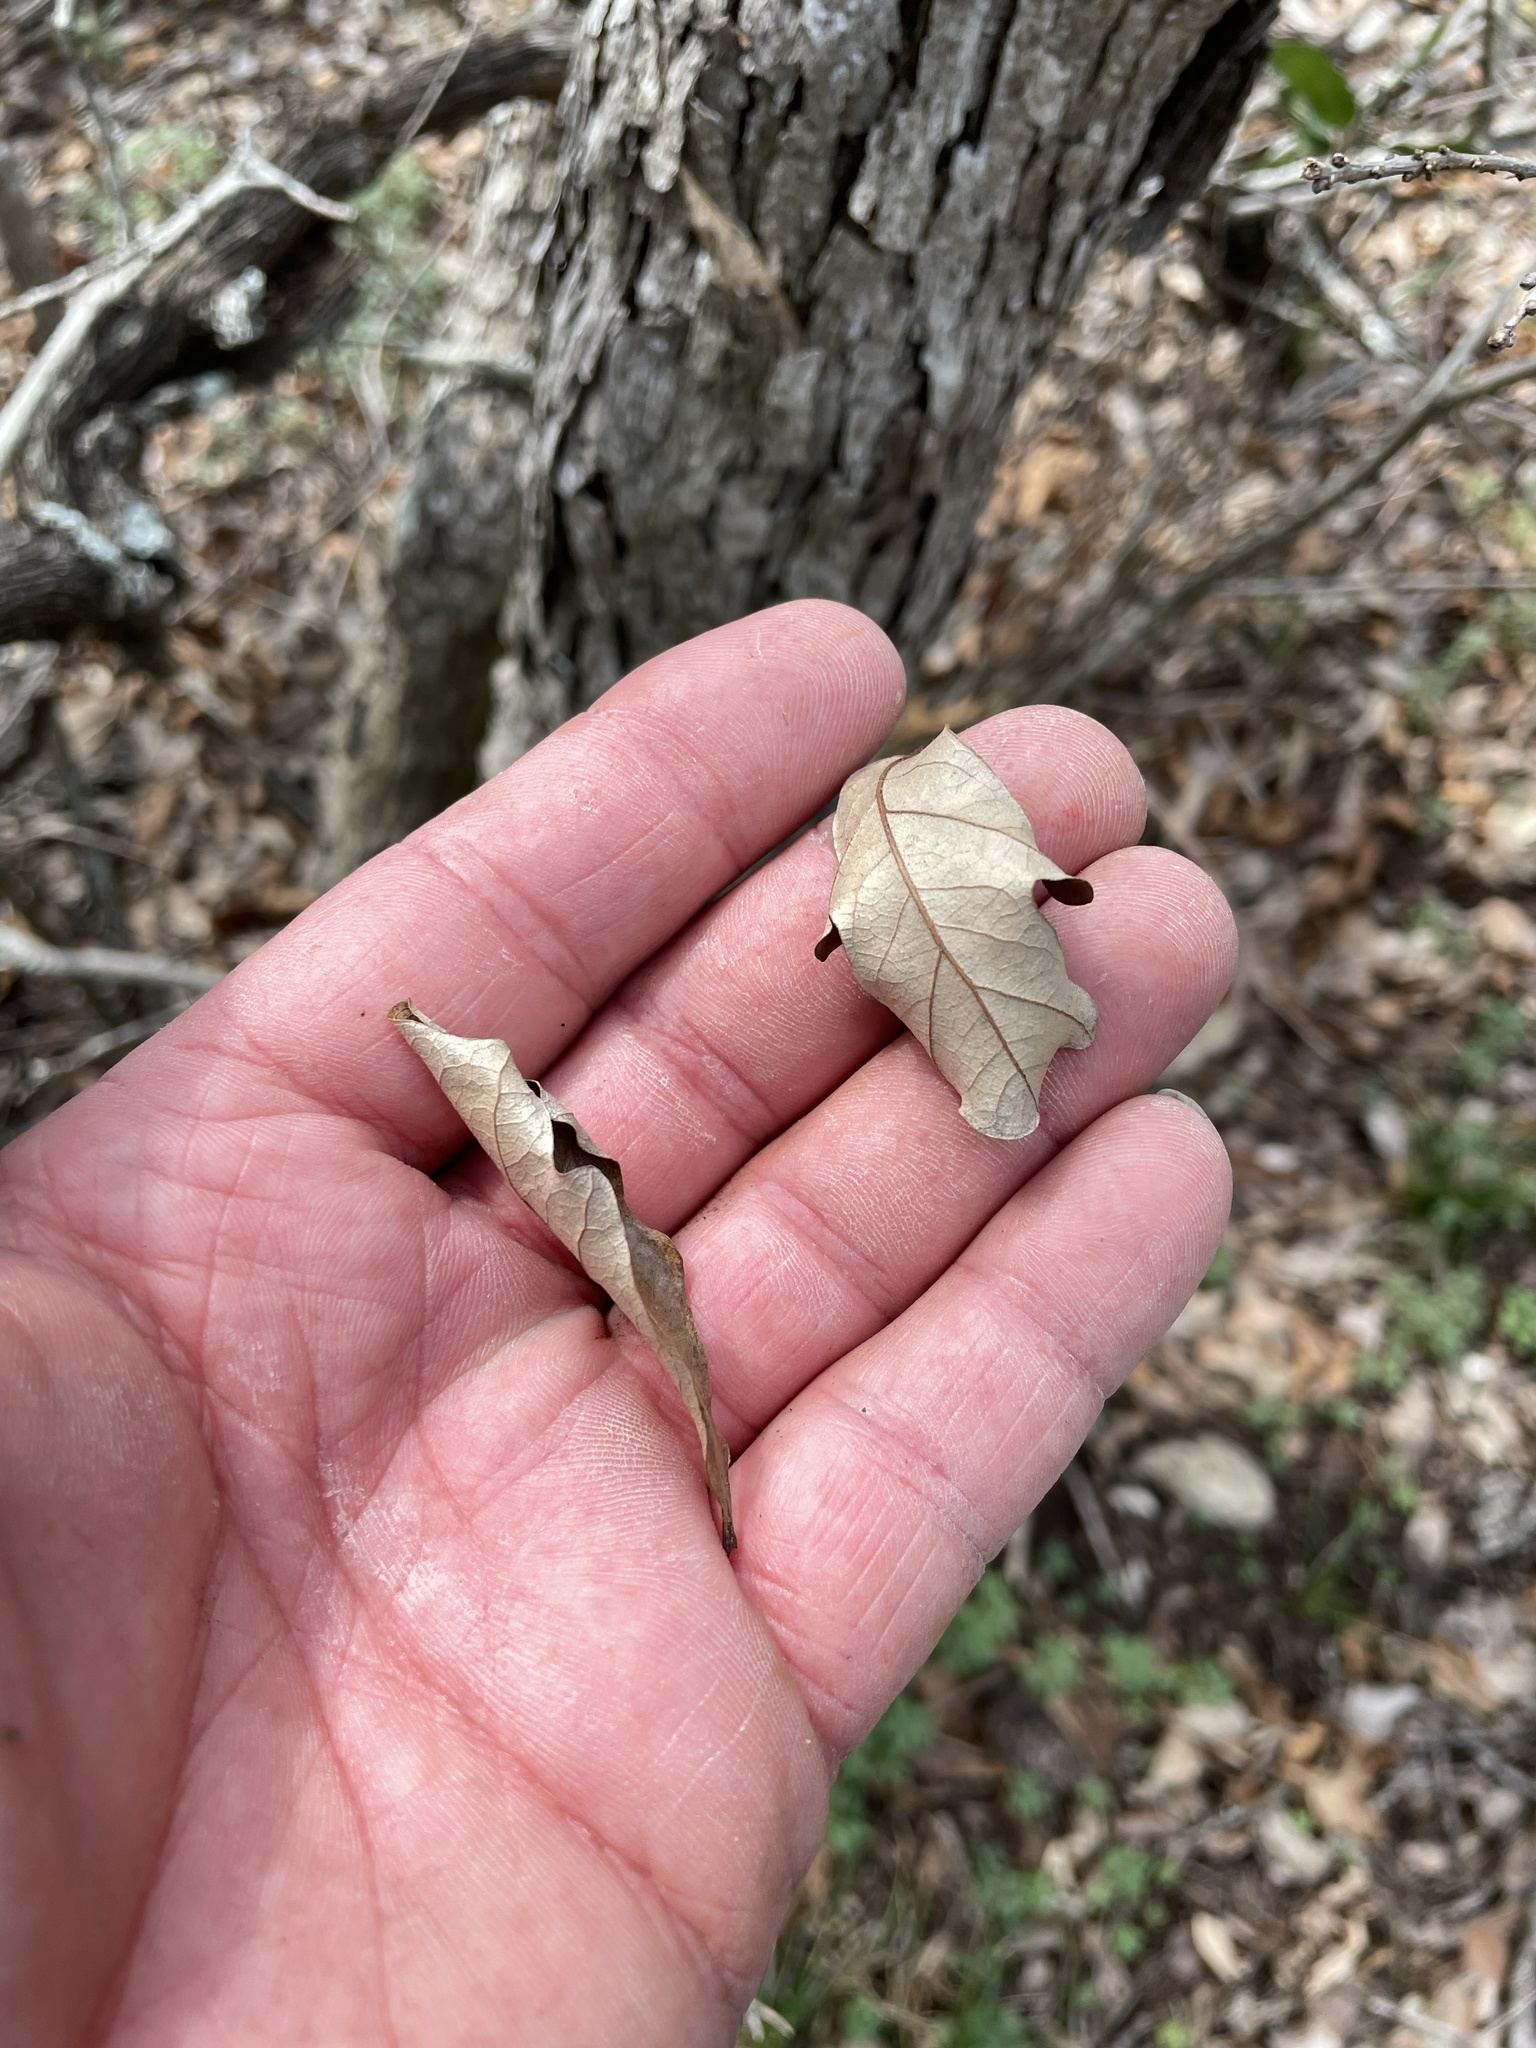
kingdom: Plantae
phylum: Tracheophyta
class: Magnoliopsida
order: Fagales
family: Fagaceae
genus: Quercus
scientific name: Quercus sinuata
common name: Durand oak
